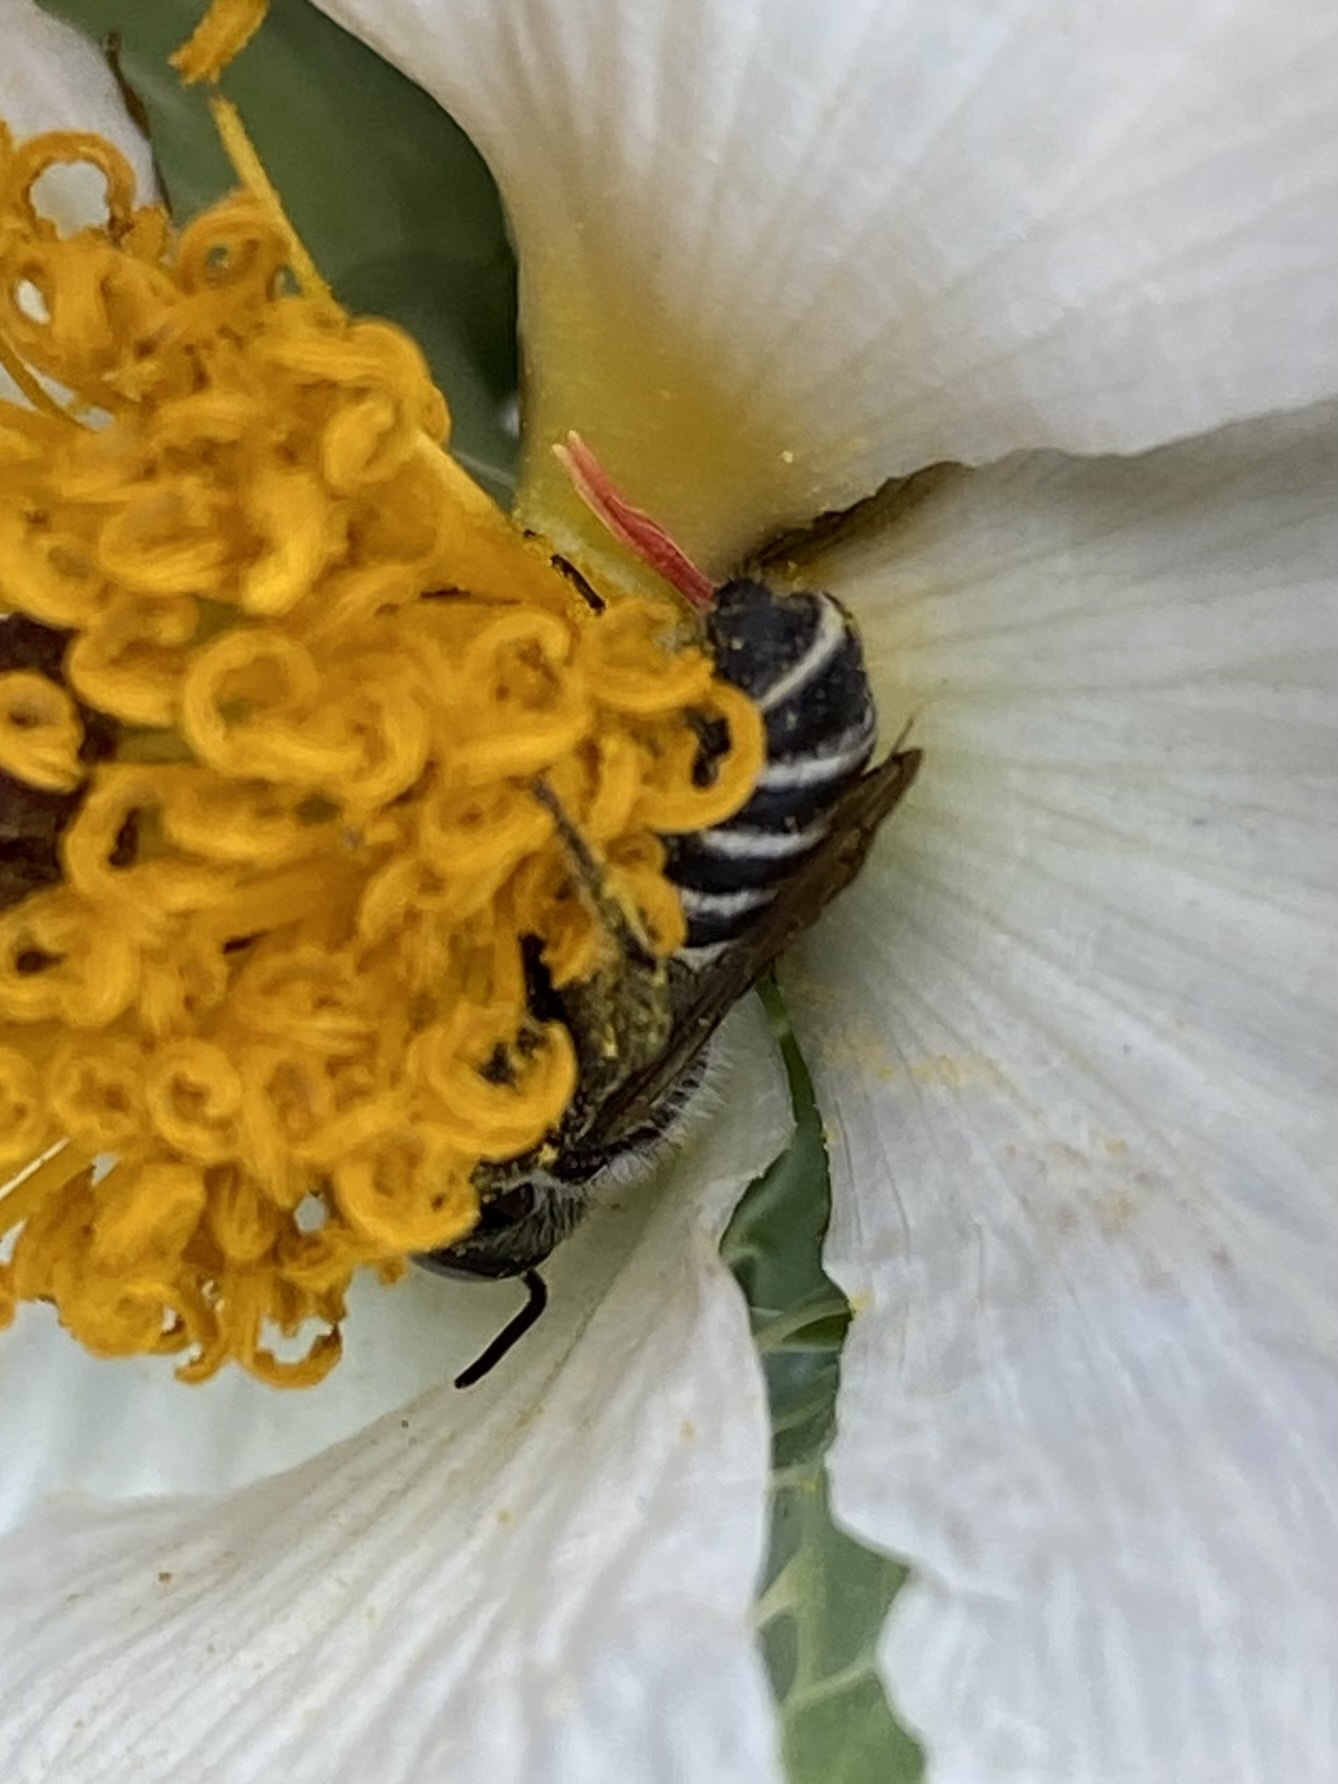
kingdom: Animalia
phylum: Arthropoda
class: Insecta
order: Hymenoptera
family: Megachilidae
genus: Megachile
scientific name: Megachile
